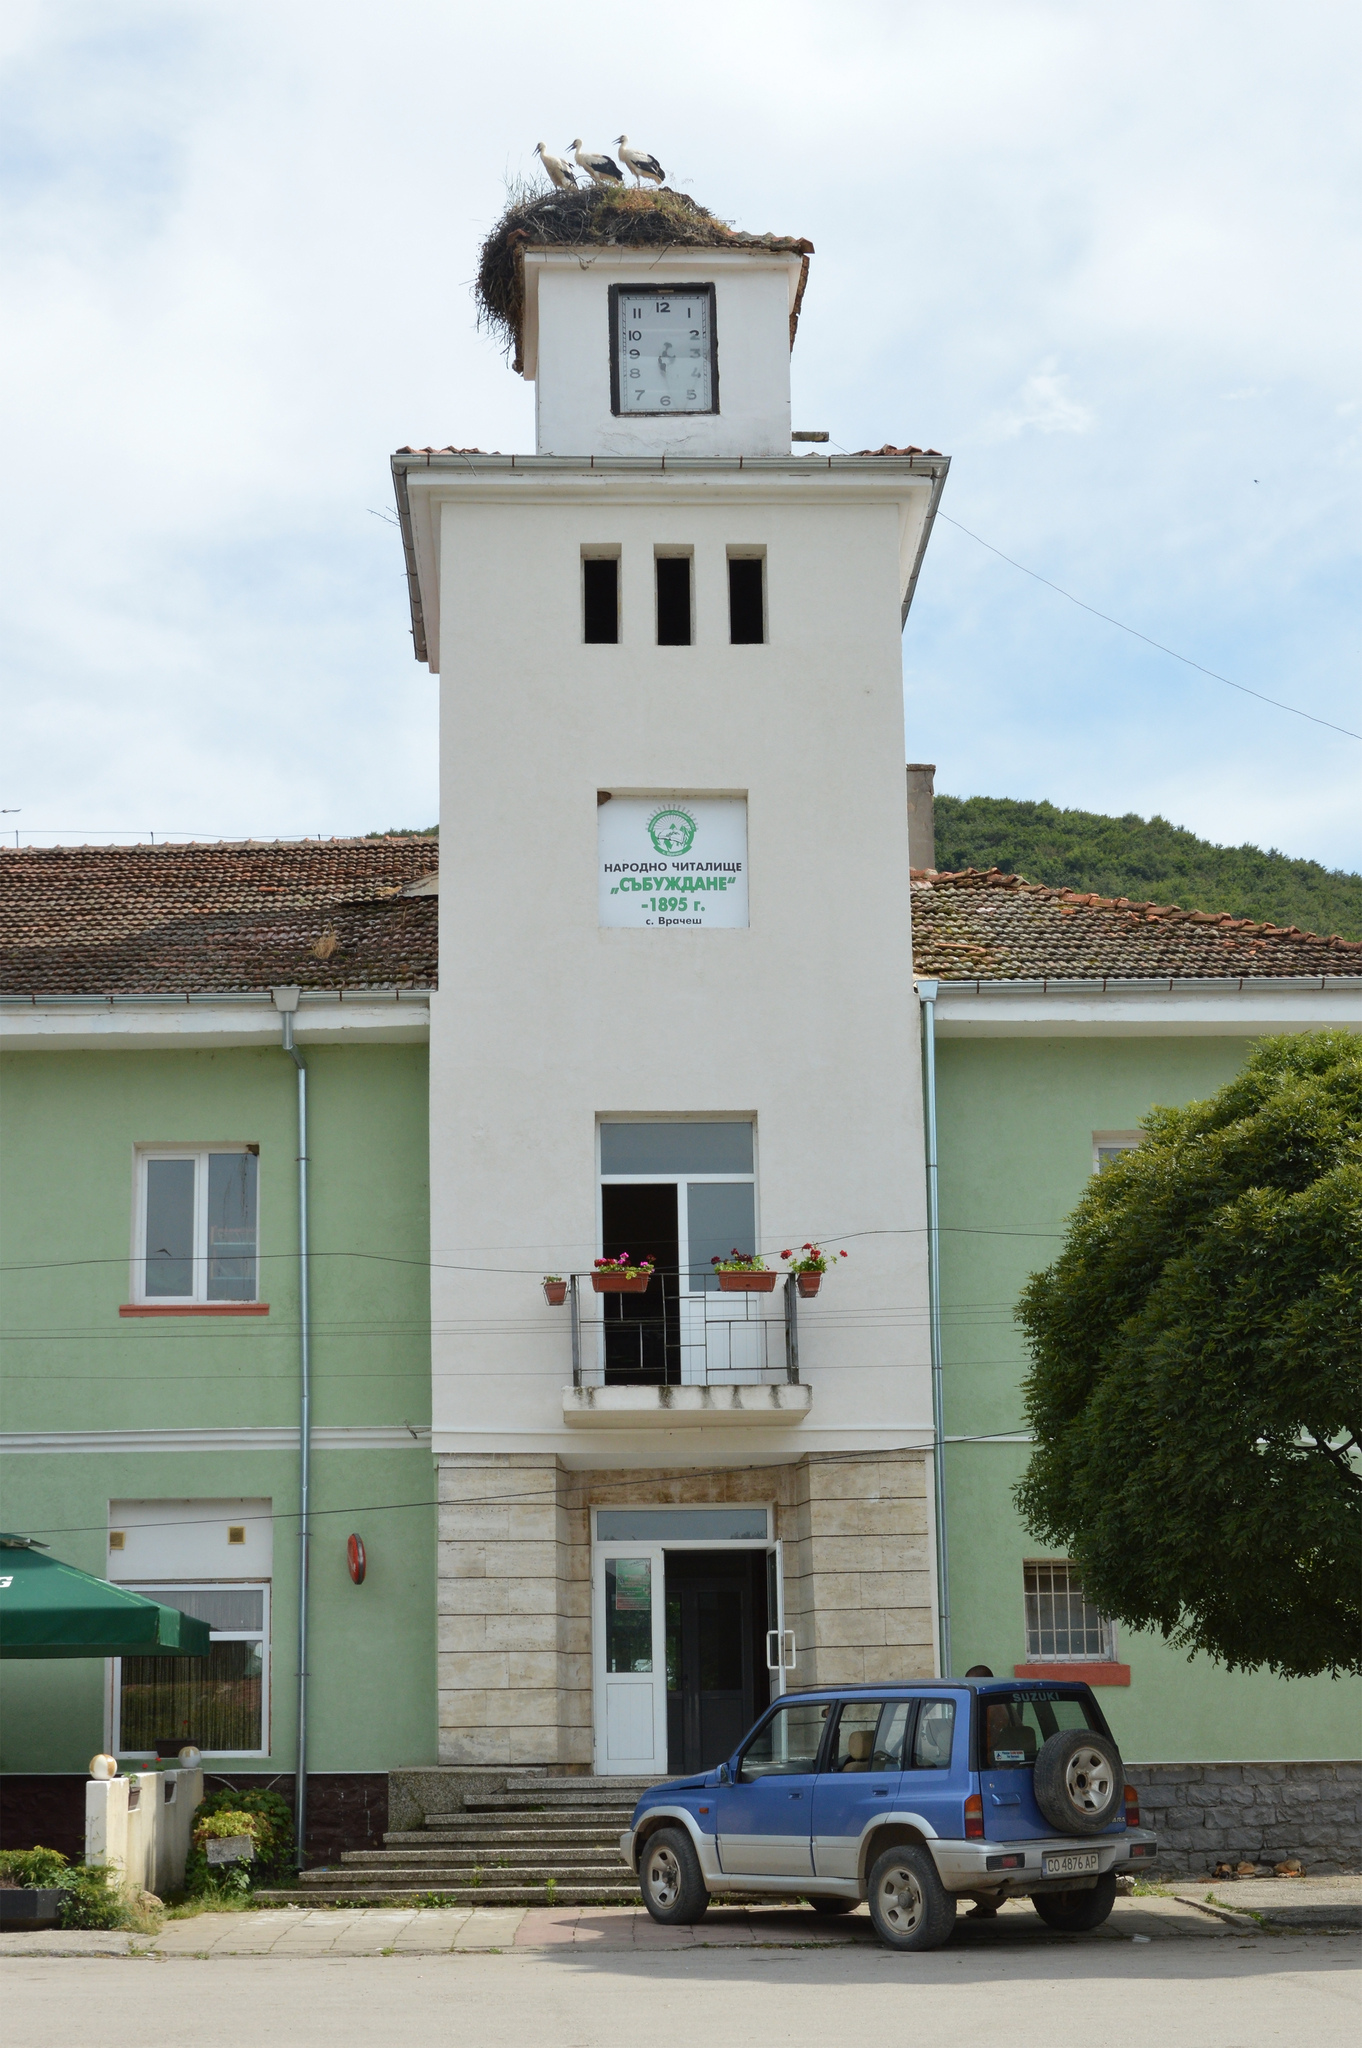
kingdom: Animalia
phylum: Chordata
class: Aves
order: Ciconiiformes
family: Ciconiidae
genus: Ciconia
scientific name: Ciconia ciconia
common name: White stork
